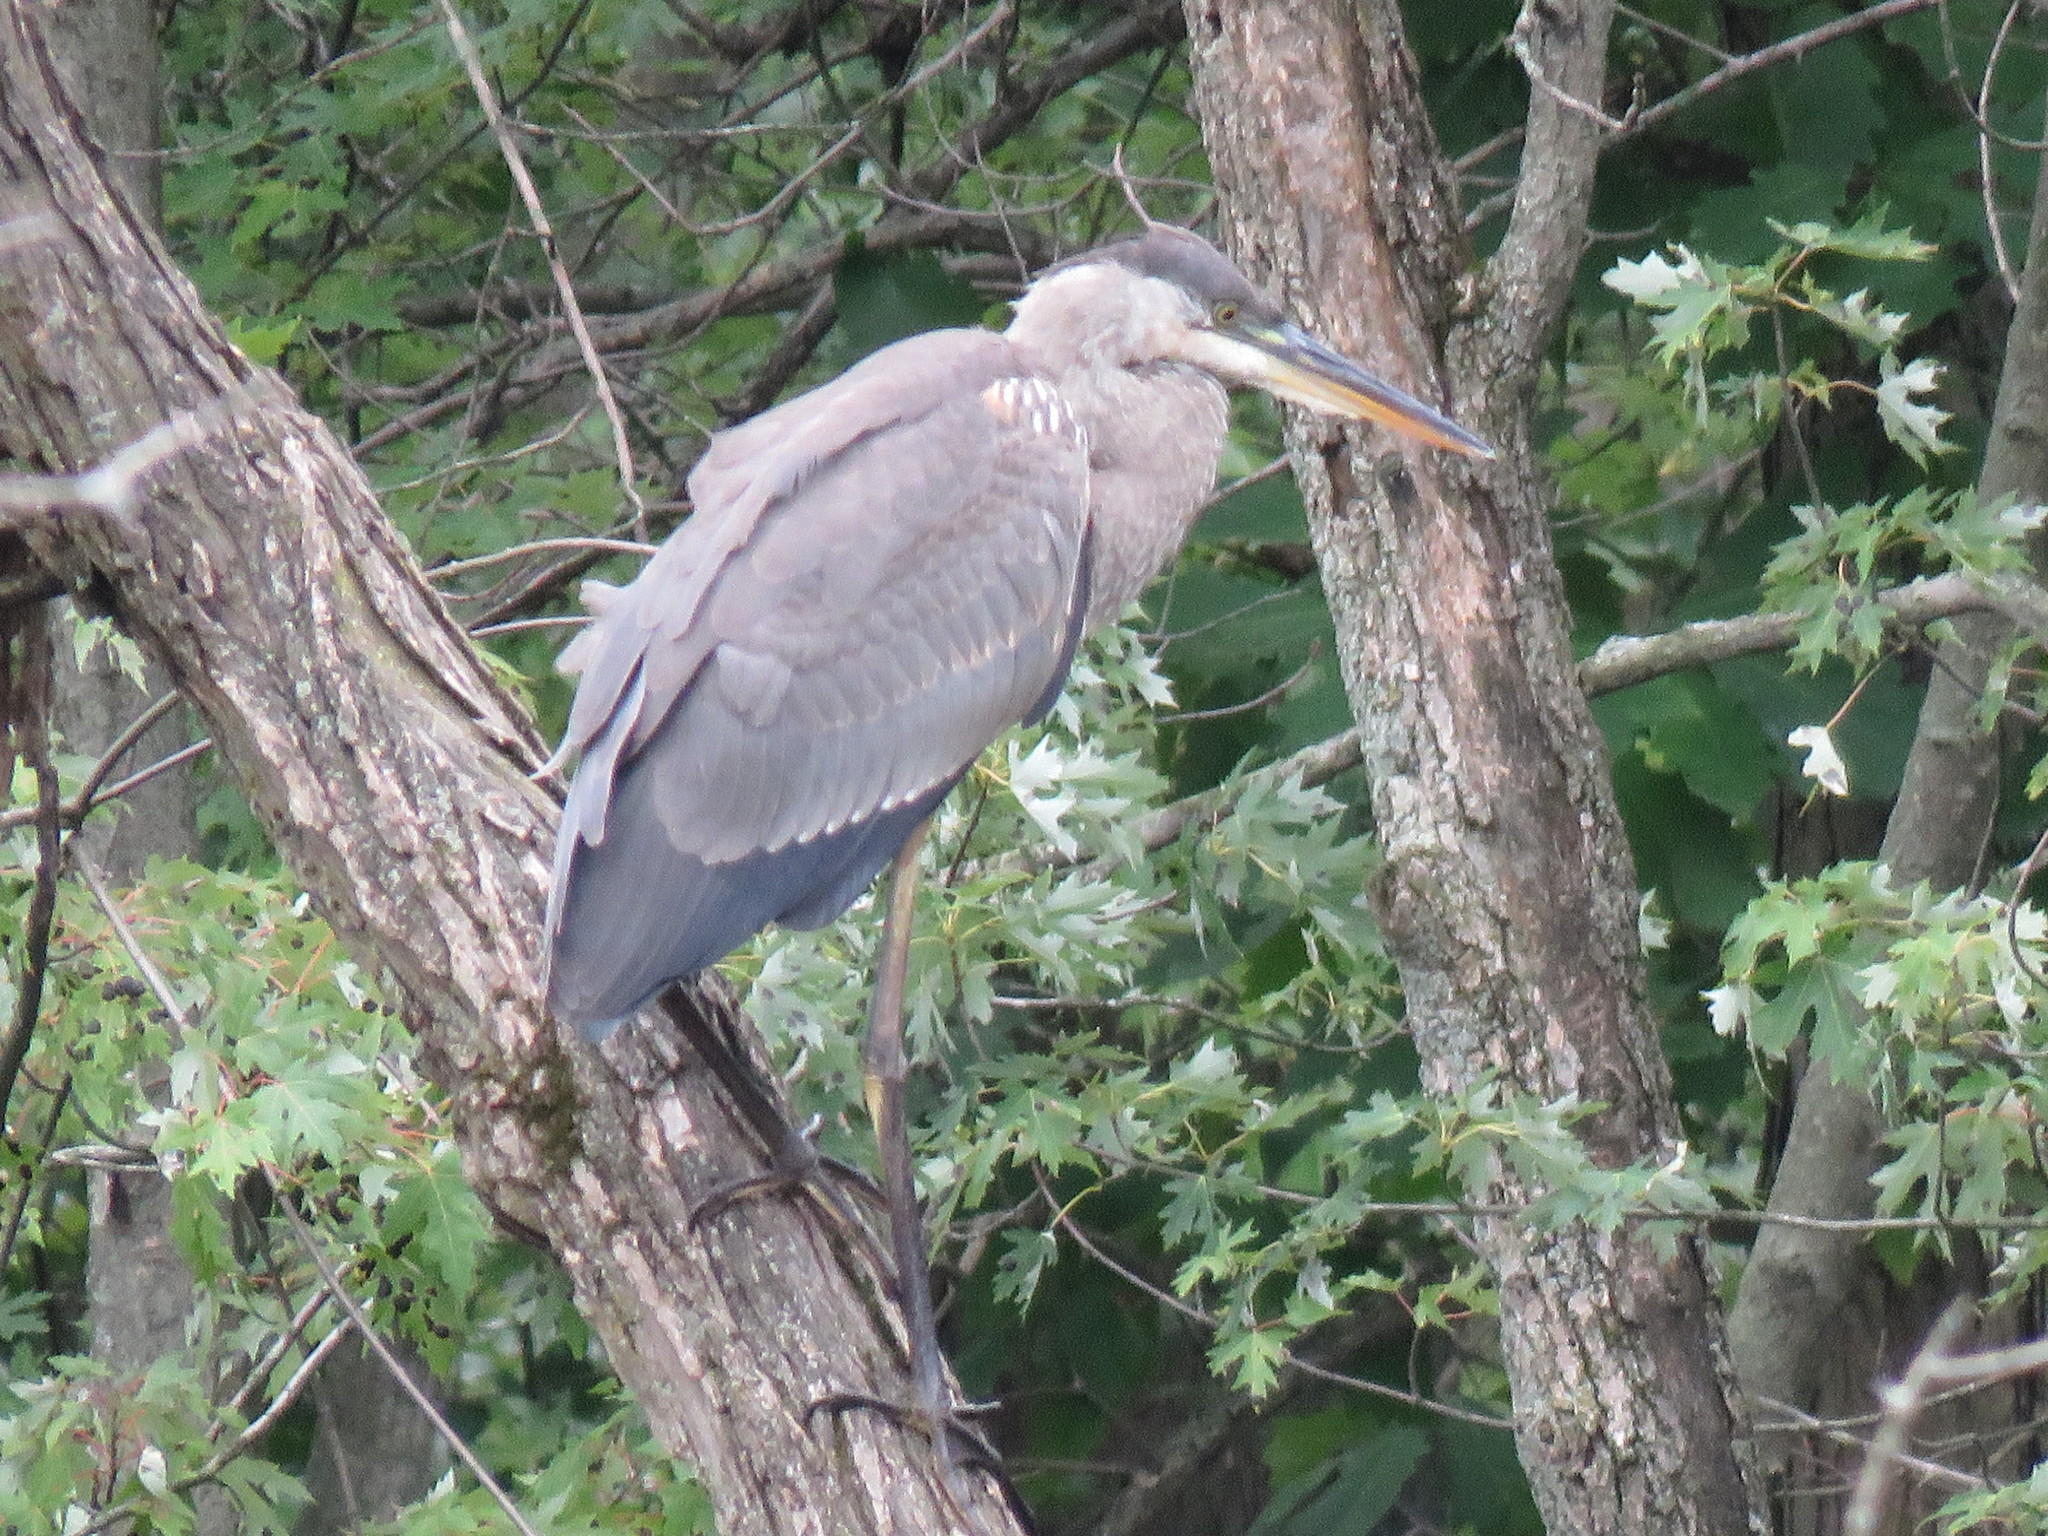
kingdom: Animalia
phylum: Chordata
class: Aves
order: Pelecaniformes
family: Ardeidae
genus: Ardea
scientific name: Ardea herodias
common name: Great blue heron
